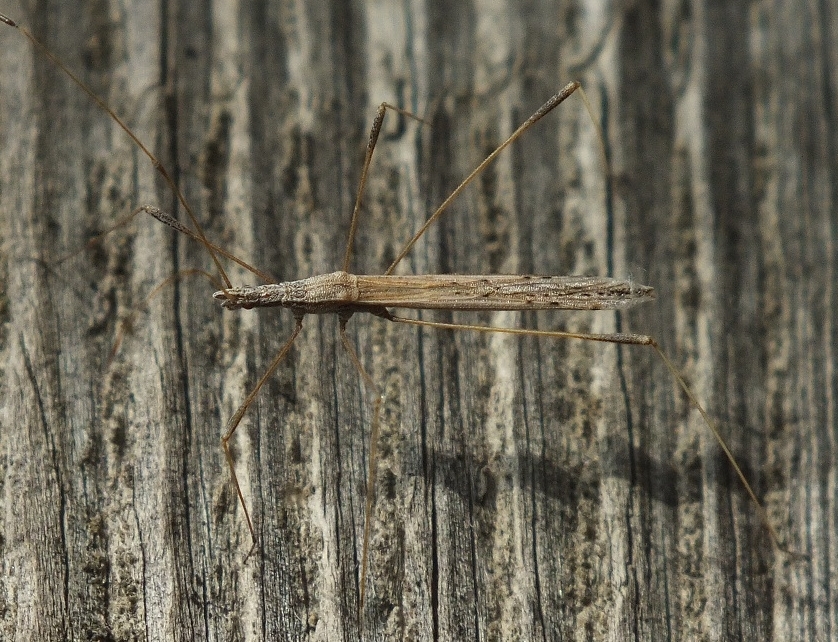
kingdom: Animalia
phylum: Arthropoda
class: Insecta
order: Hemiptera
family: Berytidae
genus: Neides
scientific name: Neides tipularius
